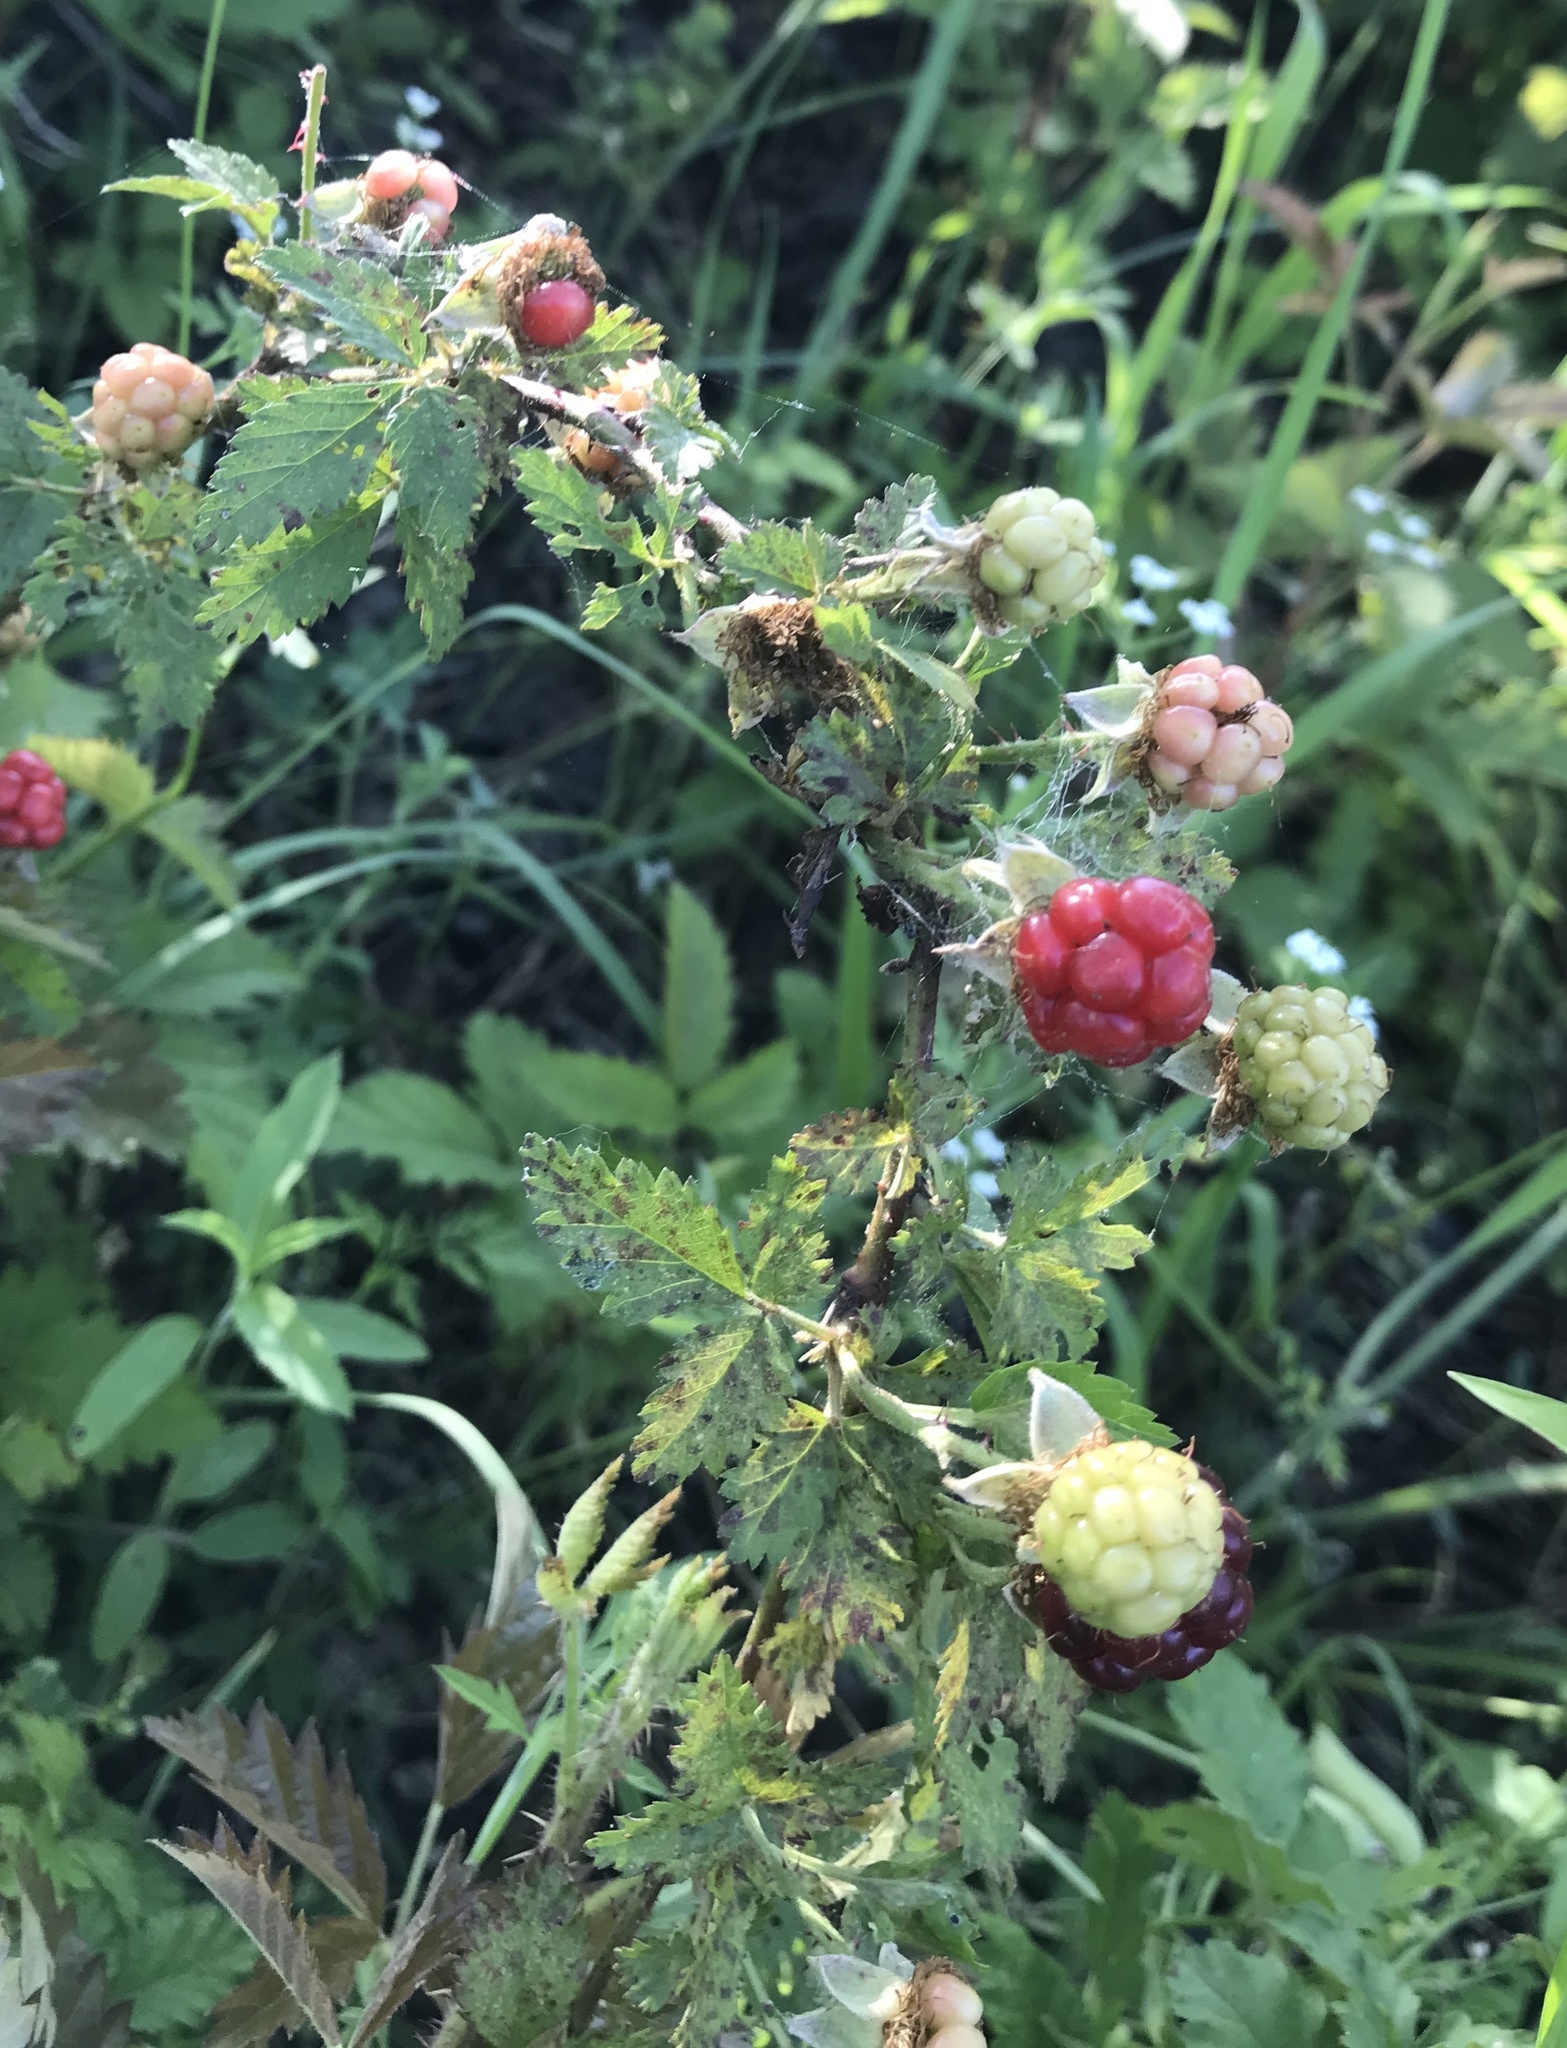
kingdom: Plantae
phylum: Tracheophyta
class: Magnoliopsida
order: Rosales
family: Rosaceae
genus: Rubus
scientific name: Rubus trivialis
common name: Southern dewberry
